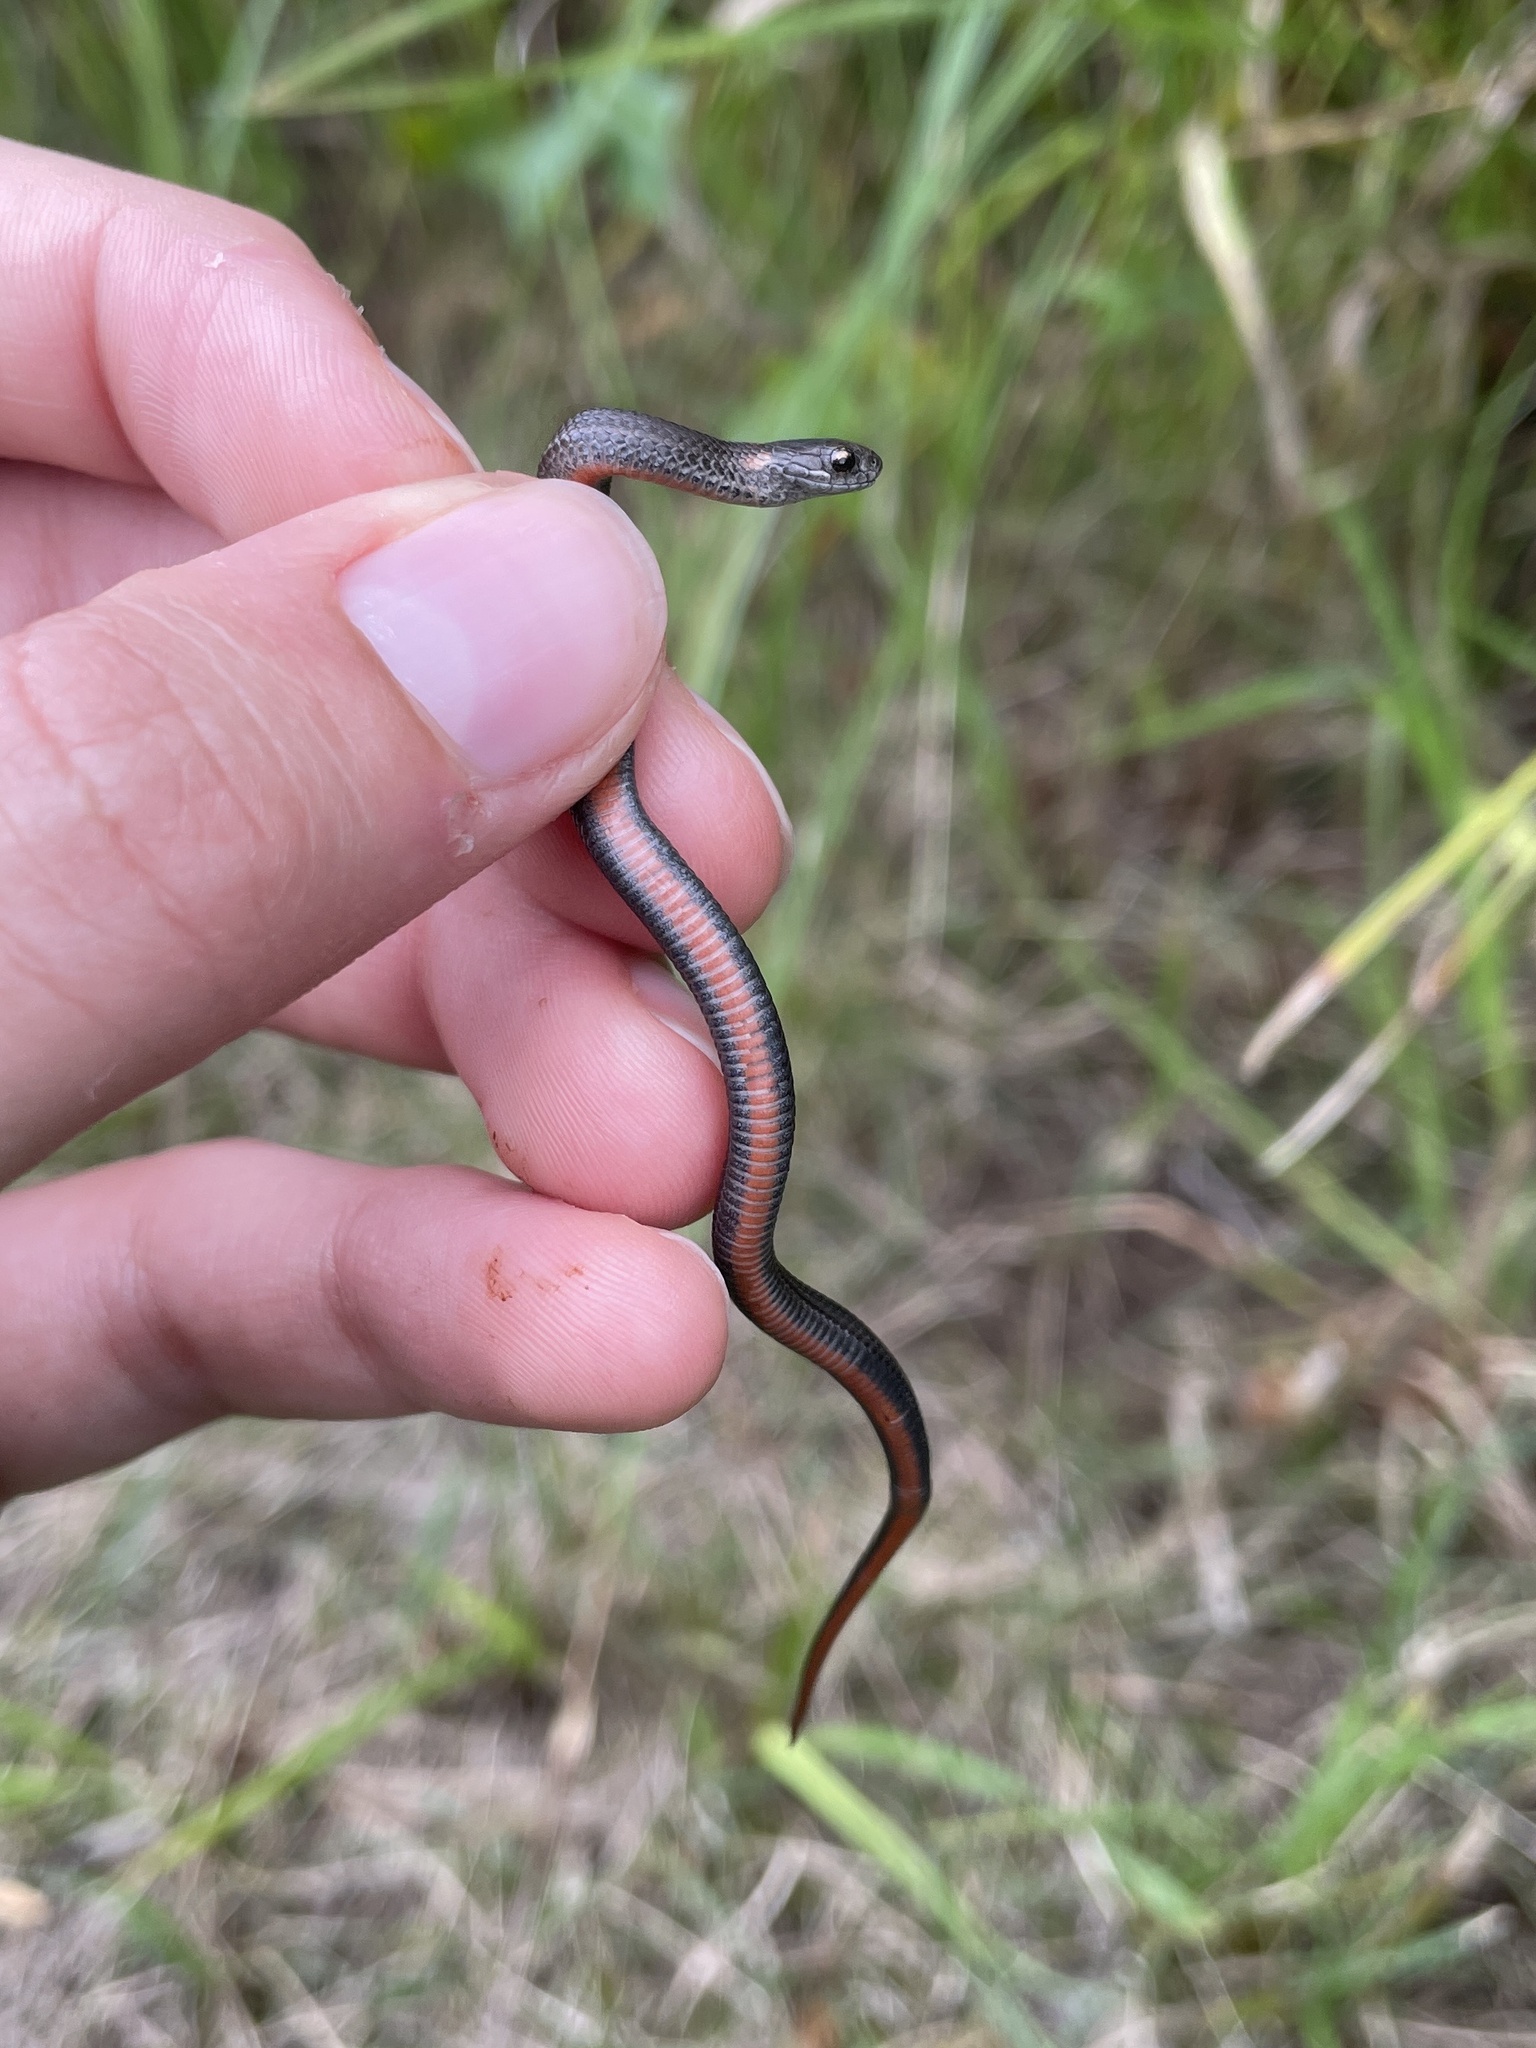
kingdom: Animalia
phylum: Chordata
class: Squamata
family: Colubridae
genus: Storeria
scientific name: Storeria occipitomaculata
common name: Redbelly snake
